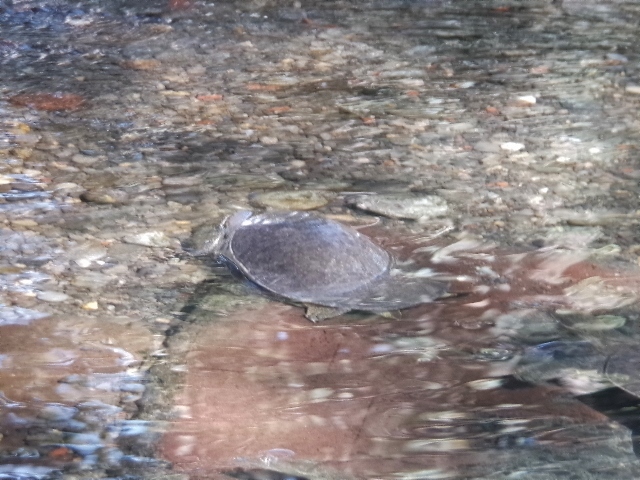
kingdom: Animalia
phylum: Chordata
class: Testudines
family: Trionychidae
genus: Apalone
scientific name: Apalone spinifera
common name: Spiny softshell turtle
